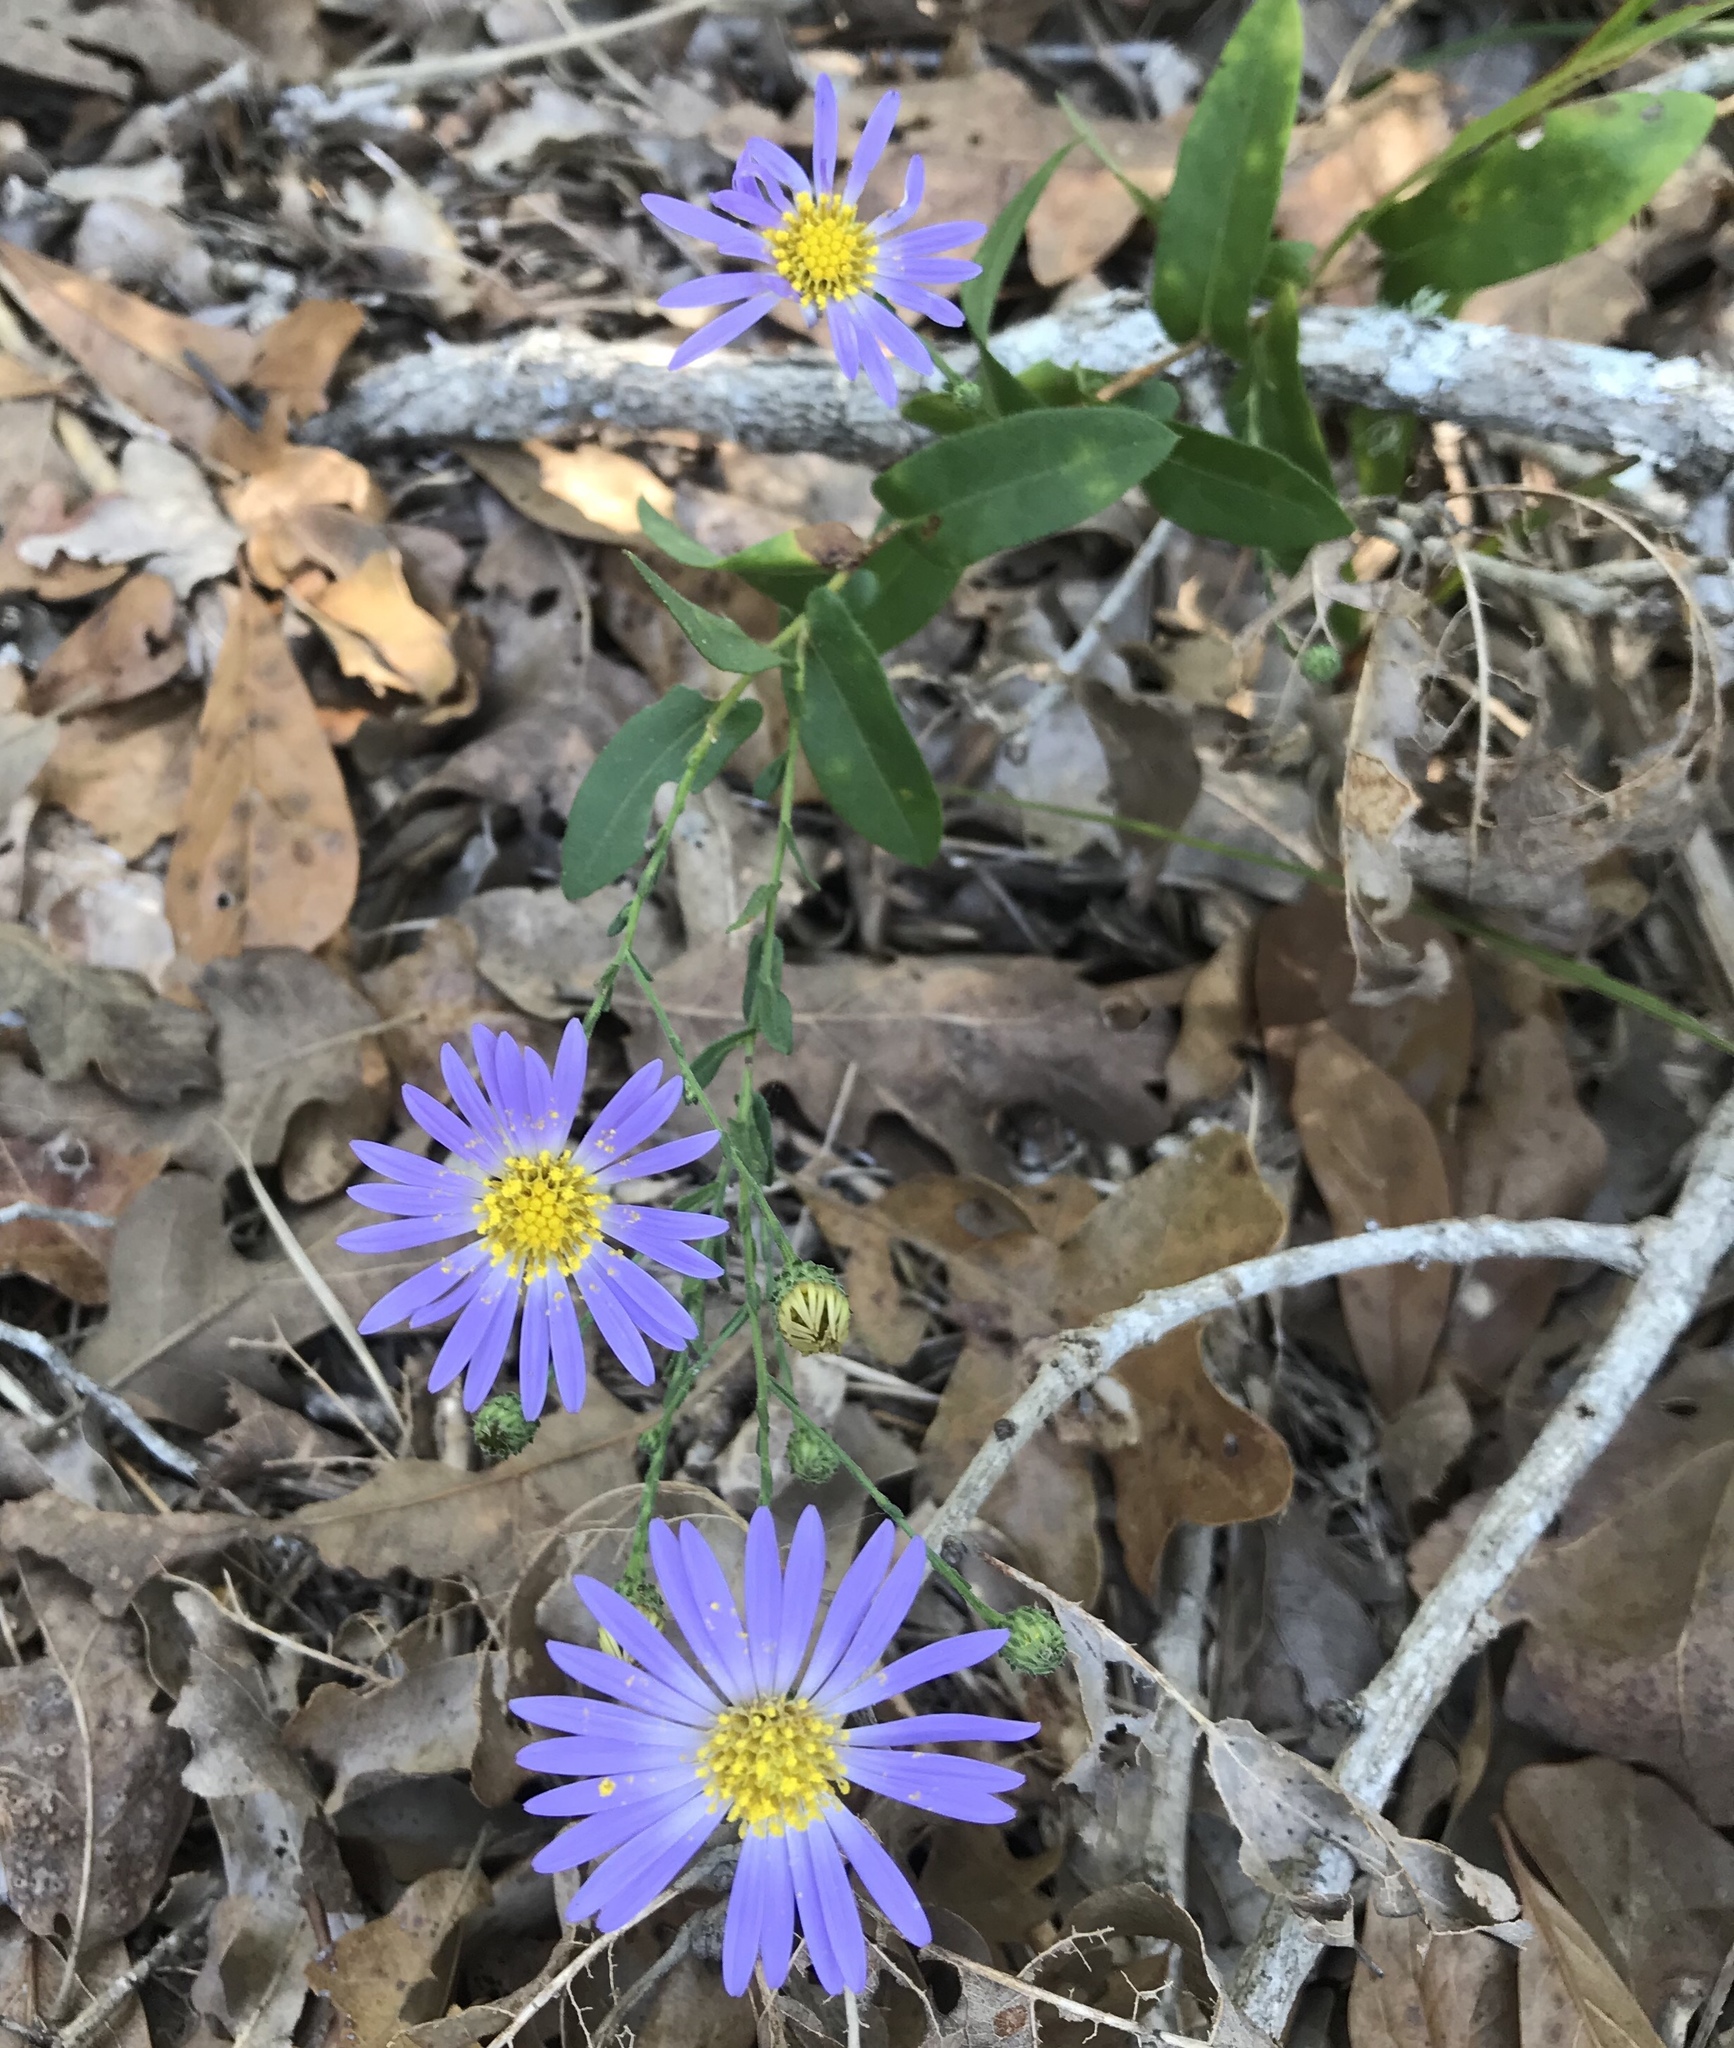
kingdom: Plantae
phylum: Tracheophyta
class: Magnoliopsida
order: Asterales
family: Asteraceae
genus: Symphyotrichum
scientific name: Symphyotrichum patens
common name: Late purple aster
